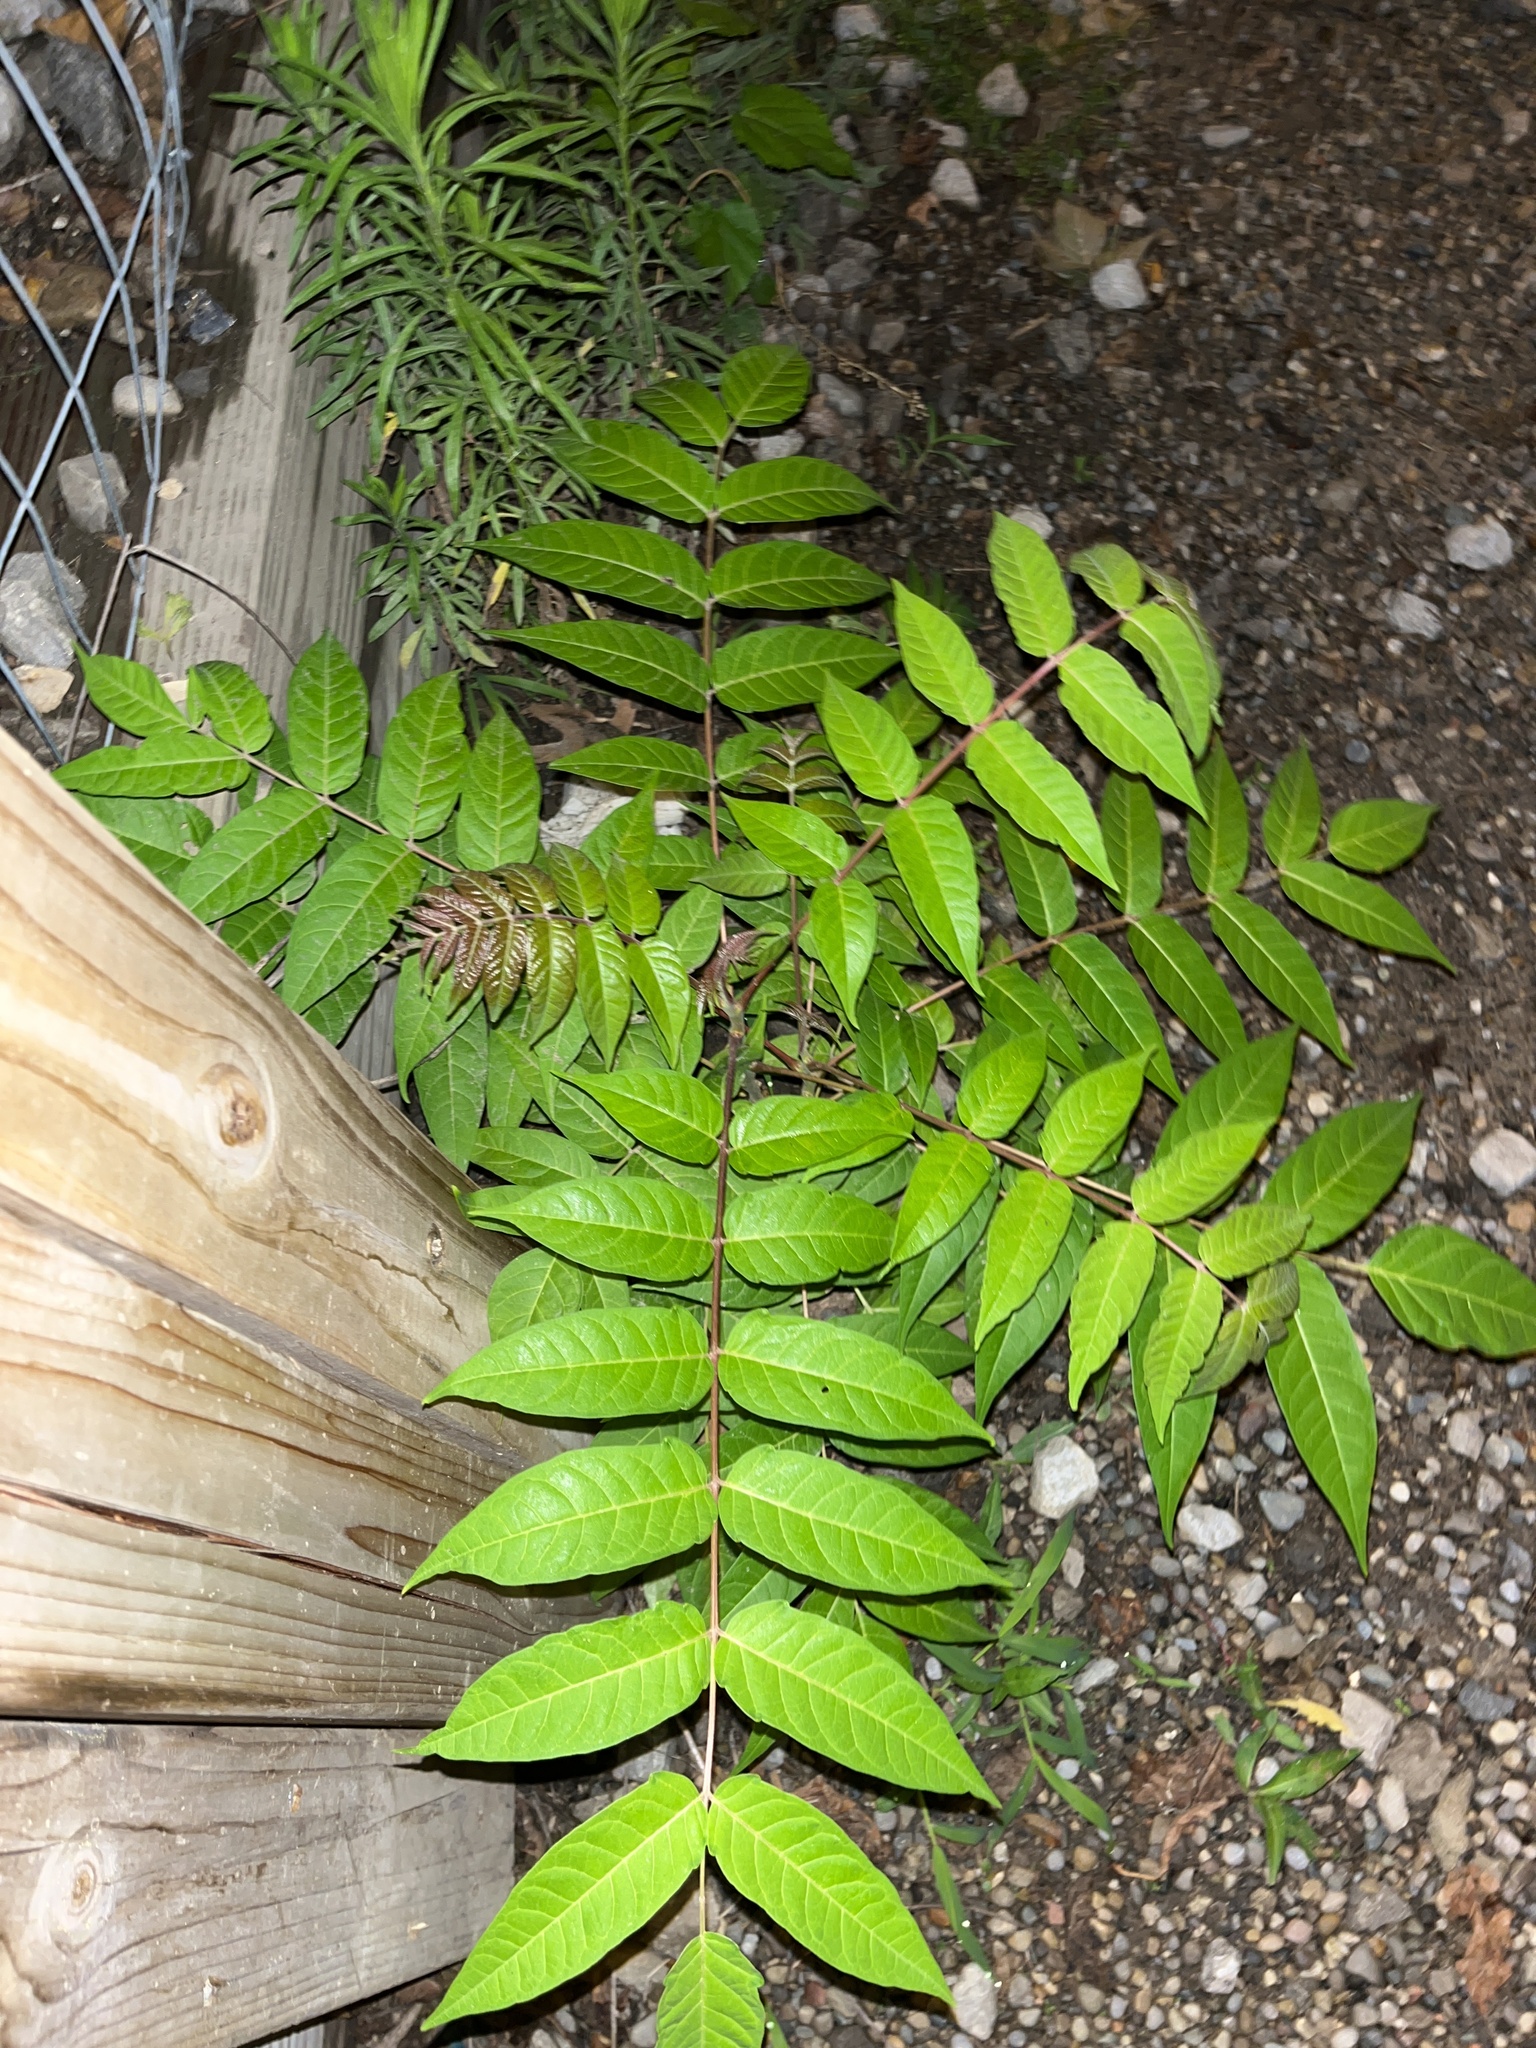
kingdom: Plantae
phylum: Tracheophyta
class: Magnoliopsida
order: Sapindales
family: Simaroubaceae
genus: Ailanthus
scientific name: Ailanthus altissima
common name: Tree-of-heaven
